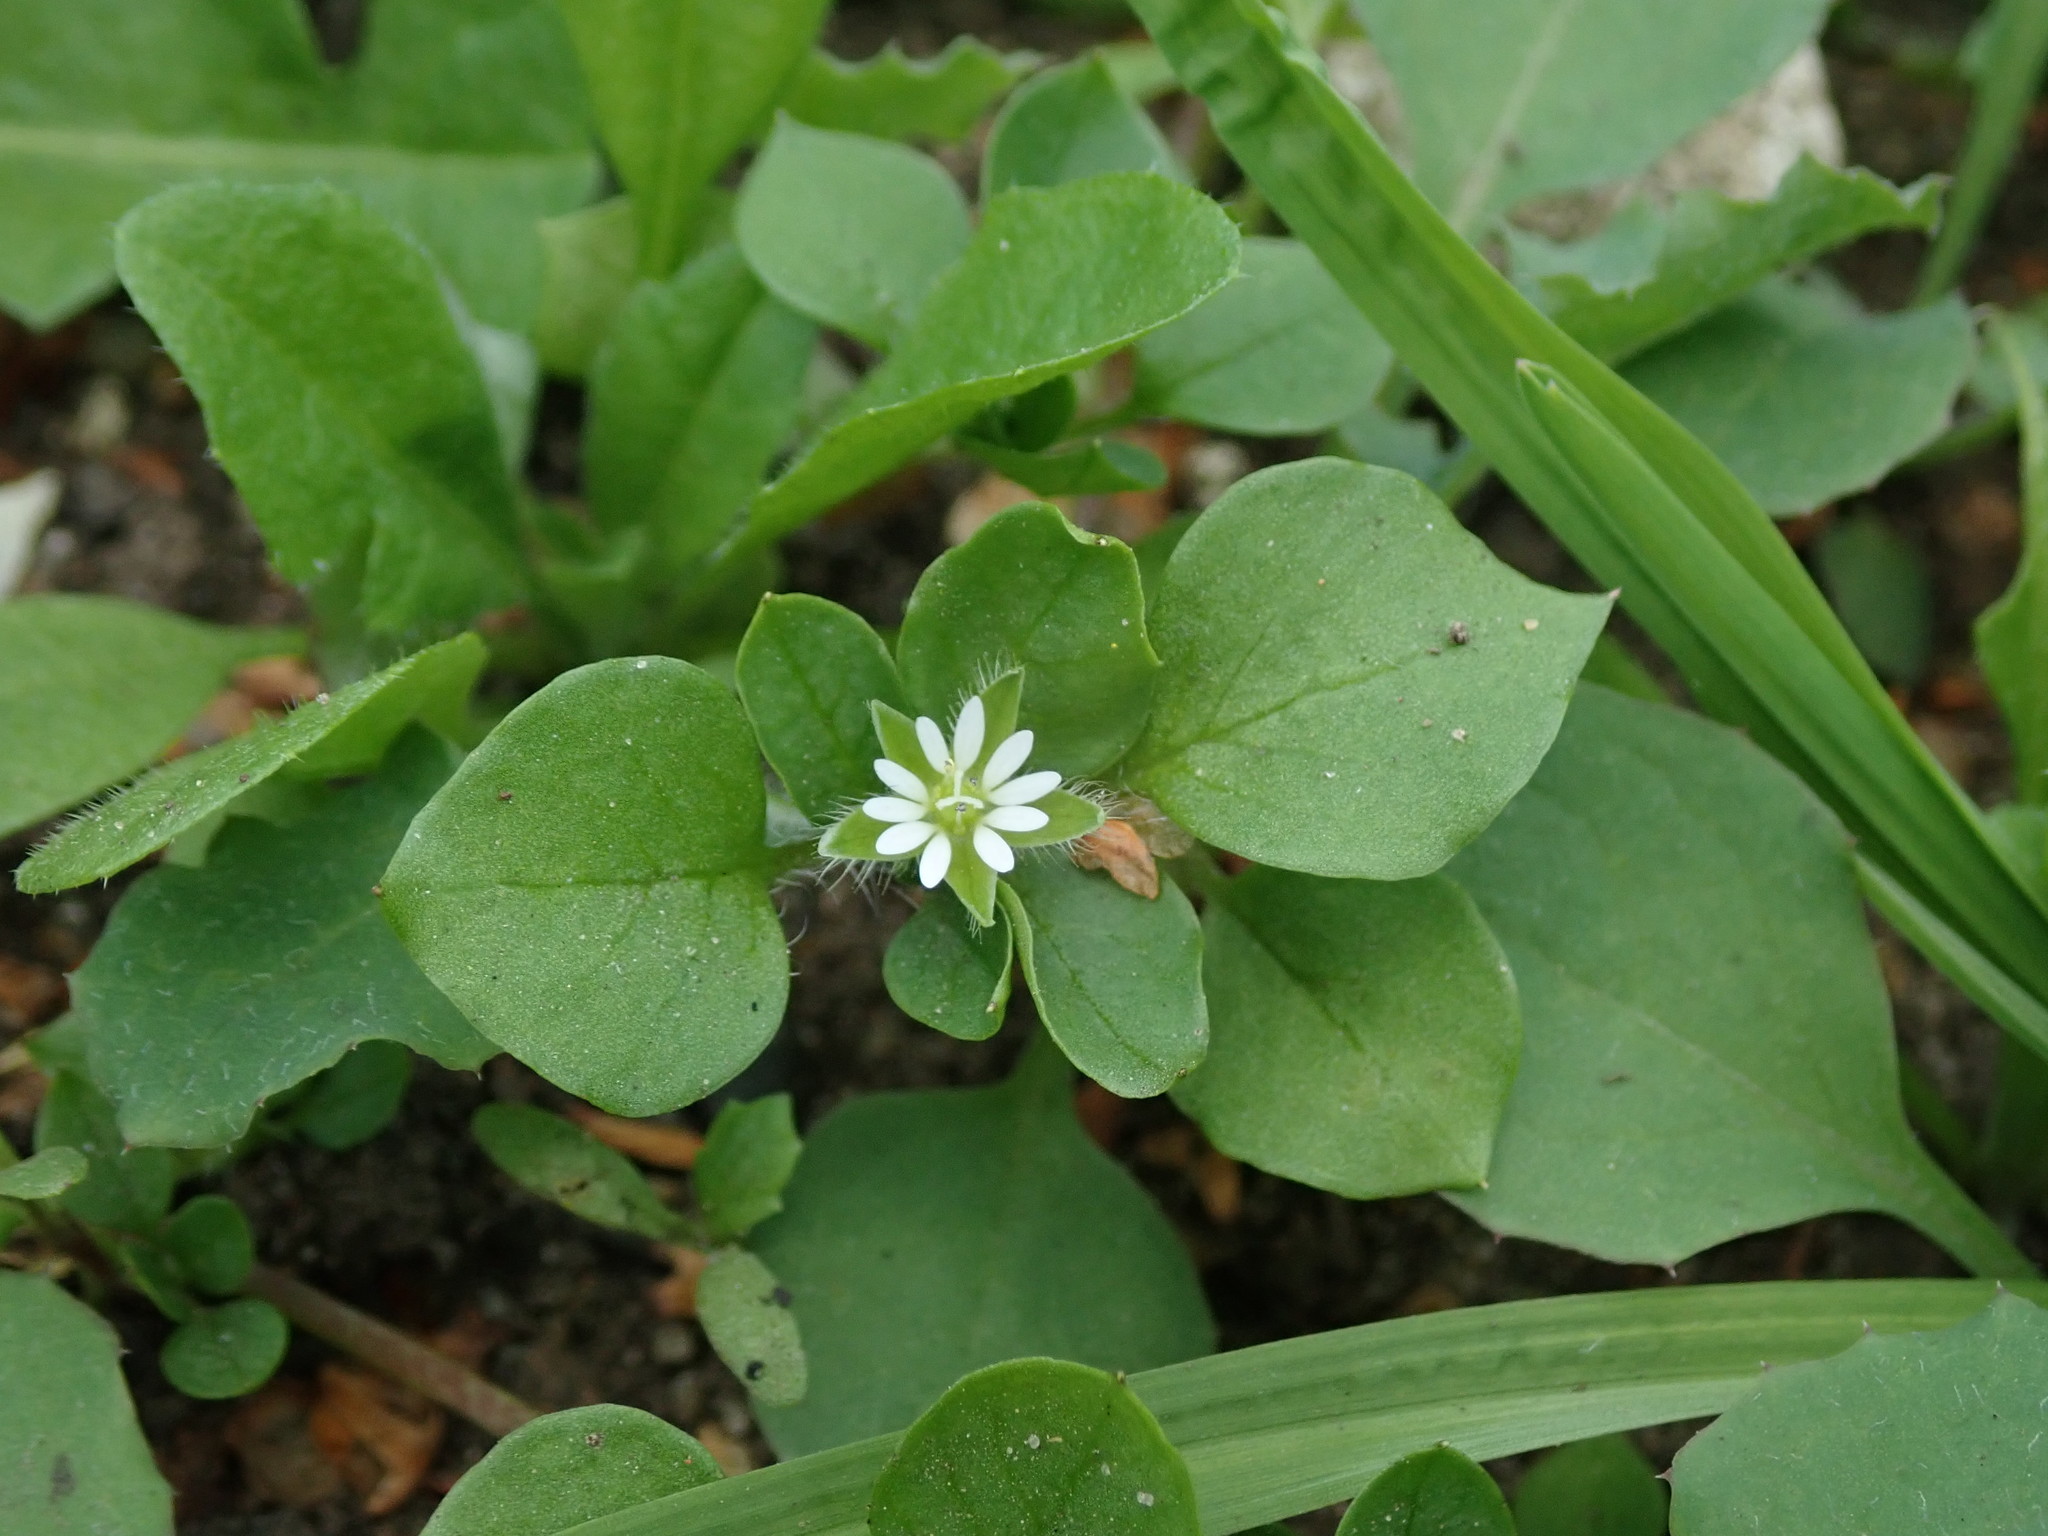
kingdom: Plantae
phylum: Tracheophyta
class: Magnoliopsida
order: Caryophyllales
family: Caryophyllaceae
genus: Stellaria
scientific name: Stellaria media
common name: Common chickweed
